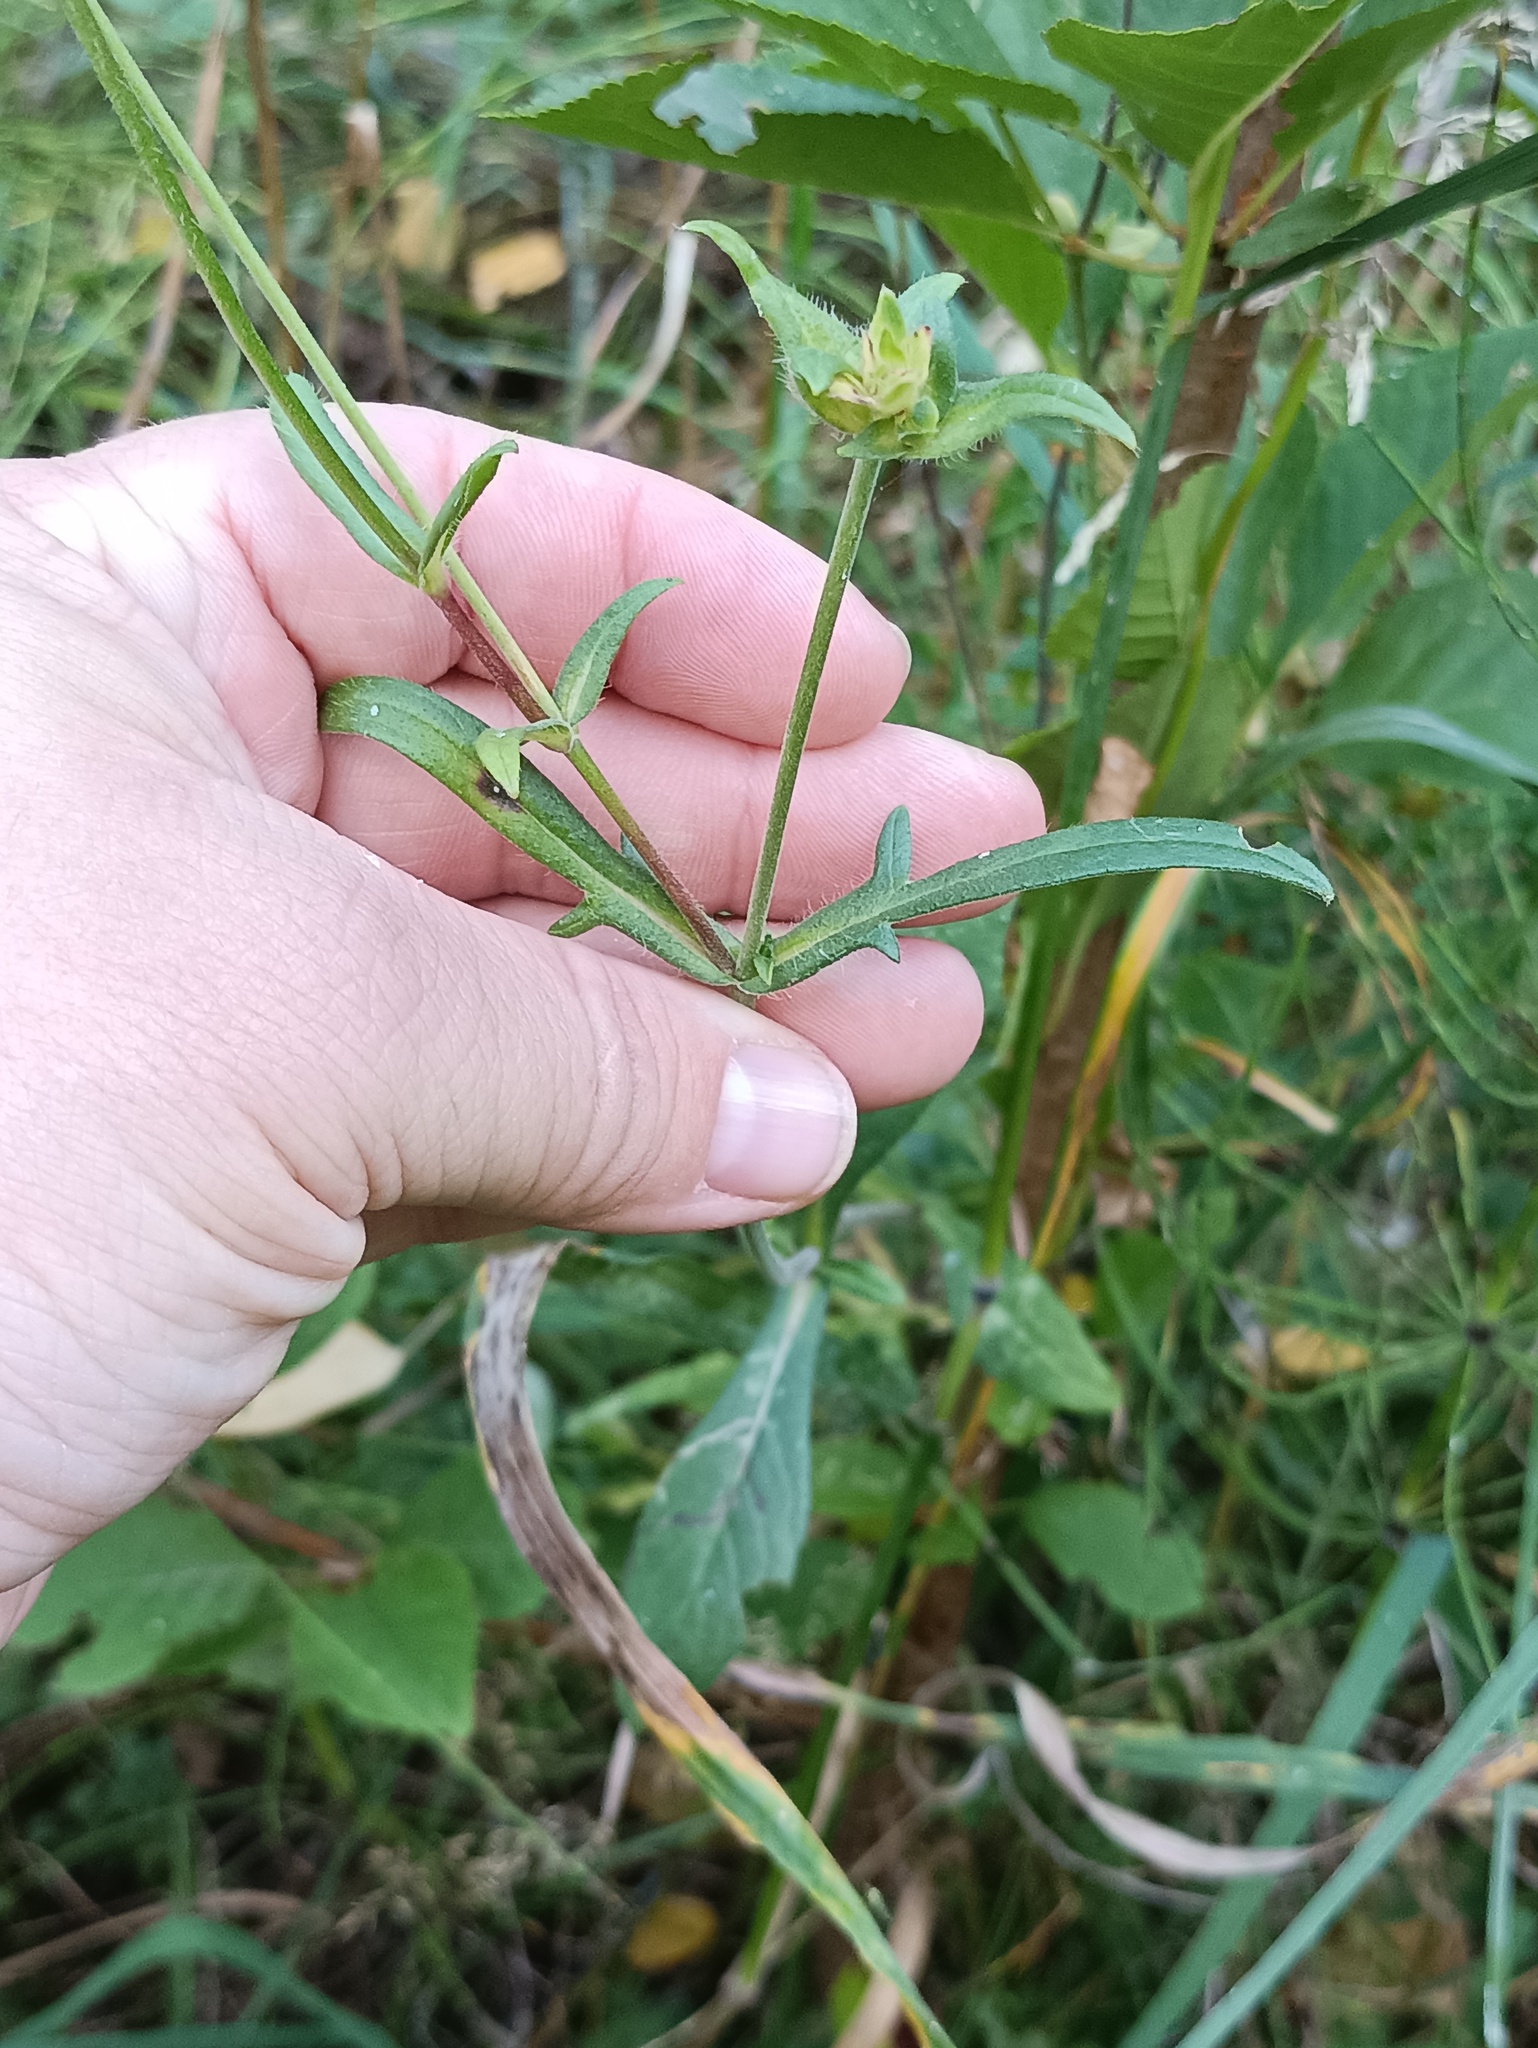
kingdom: Plantae
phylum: Tracheophyta
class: Magnoliopsida
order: Dipsacales
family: Caprifoliaceae
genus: Knautia
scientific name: Knautia arvensis
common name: Field scabiosa
